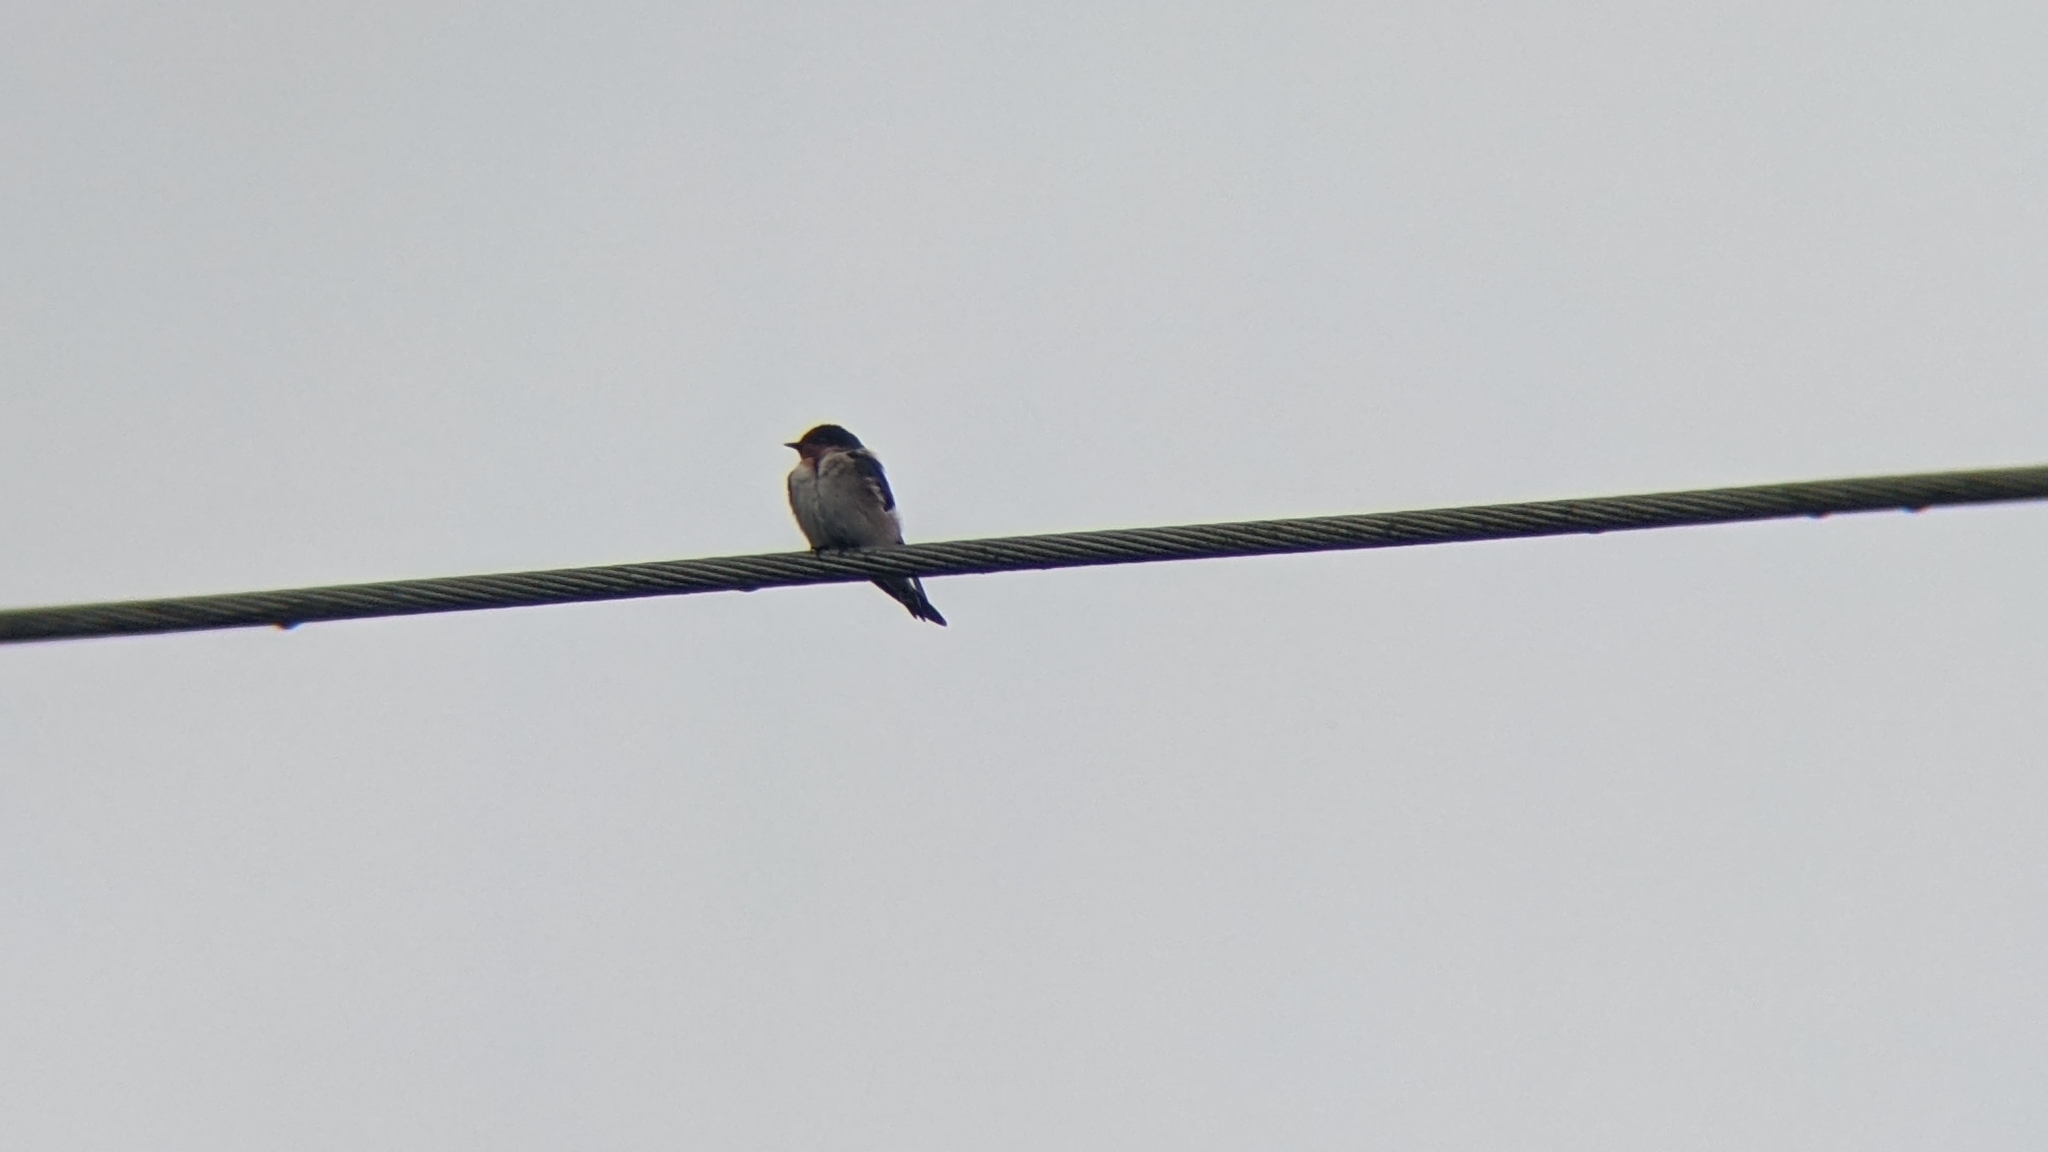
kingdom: Animalia
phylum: Chordata
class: Aves
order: Passeriformes
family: Hirundinidae
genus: Hirundo
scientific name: Hirundo tahitica
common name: Pacific swallow
